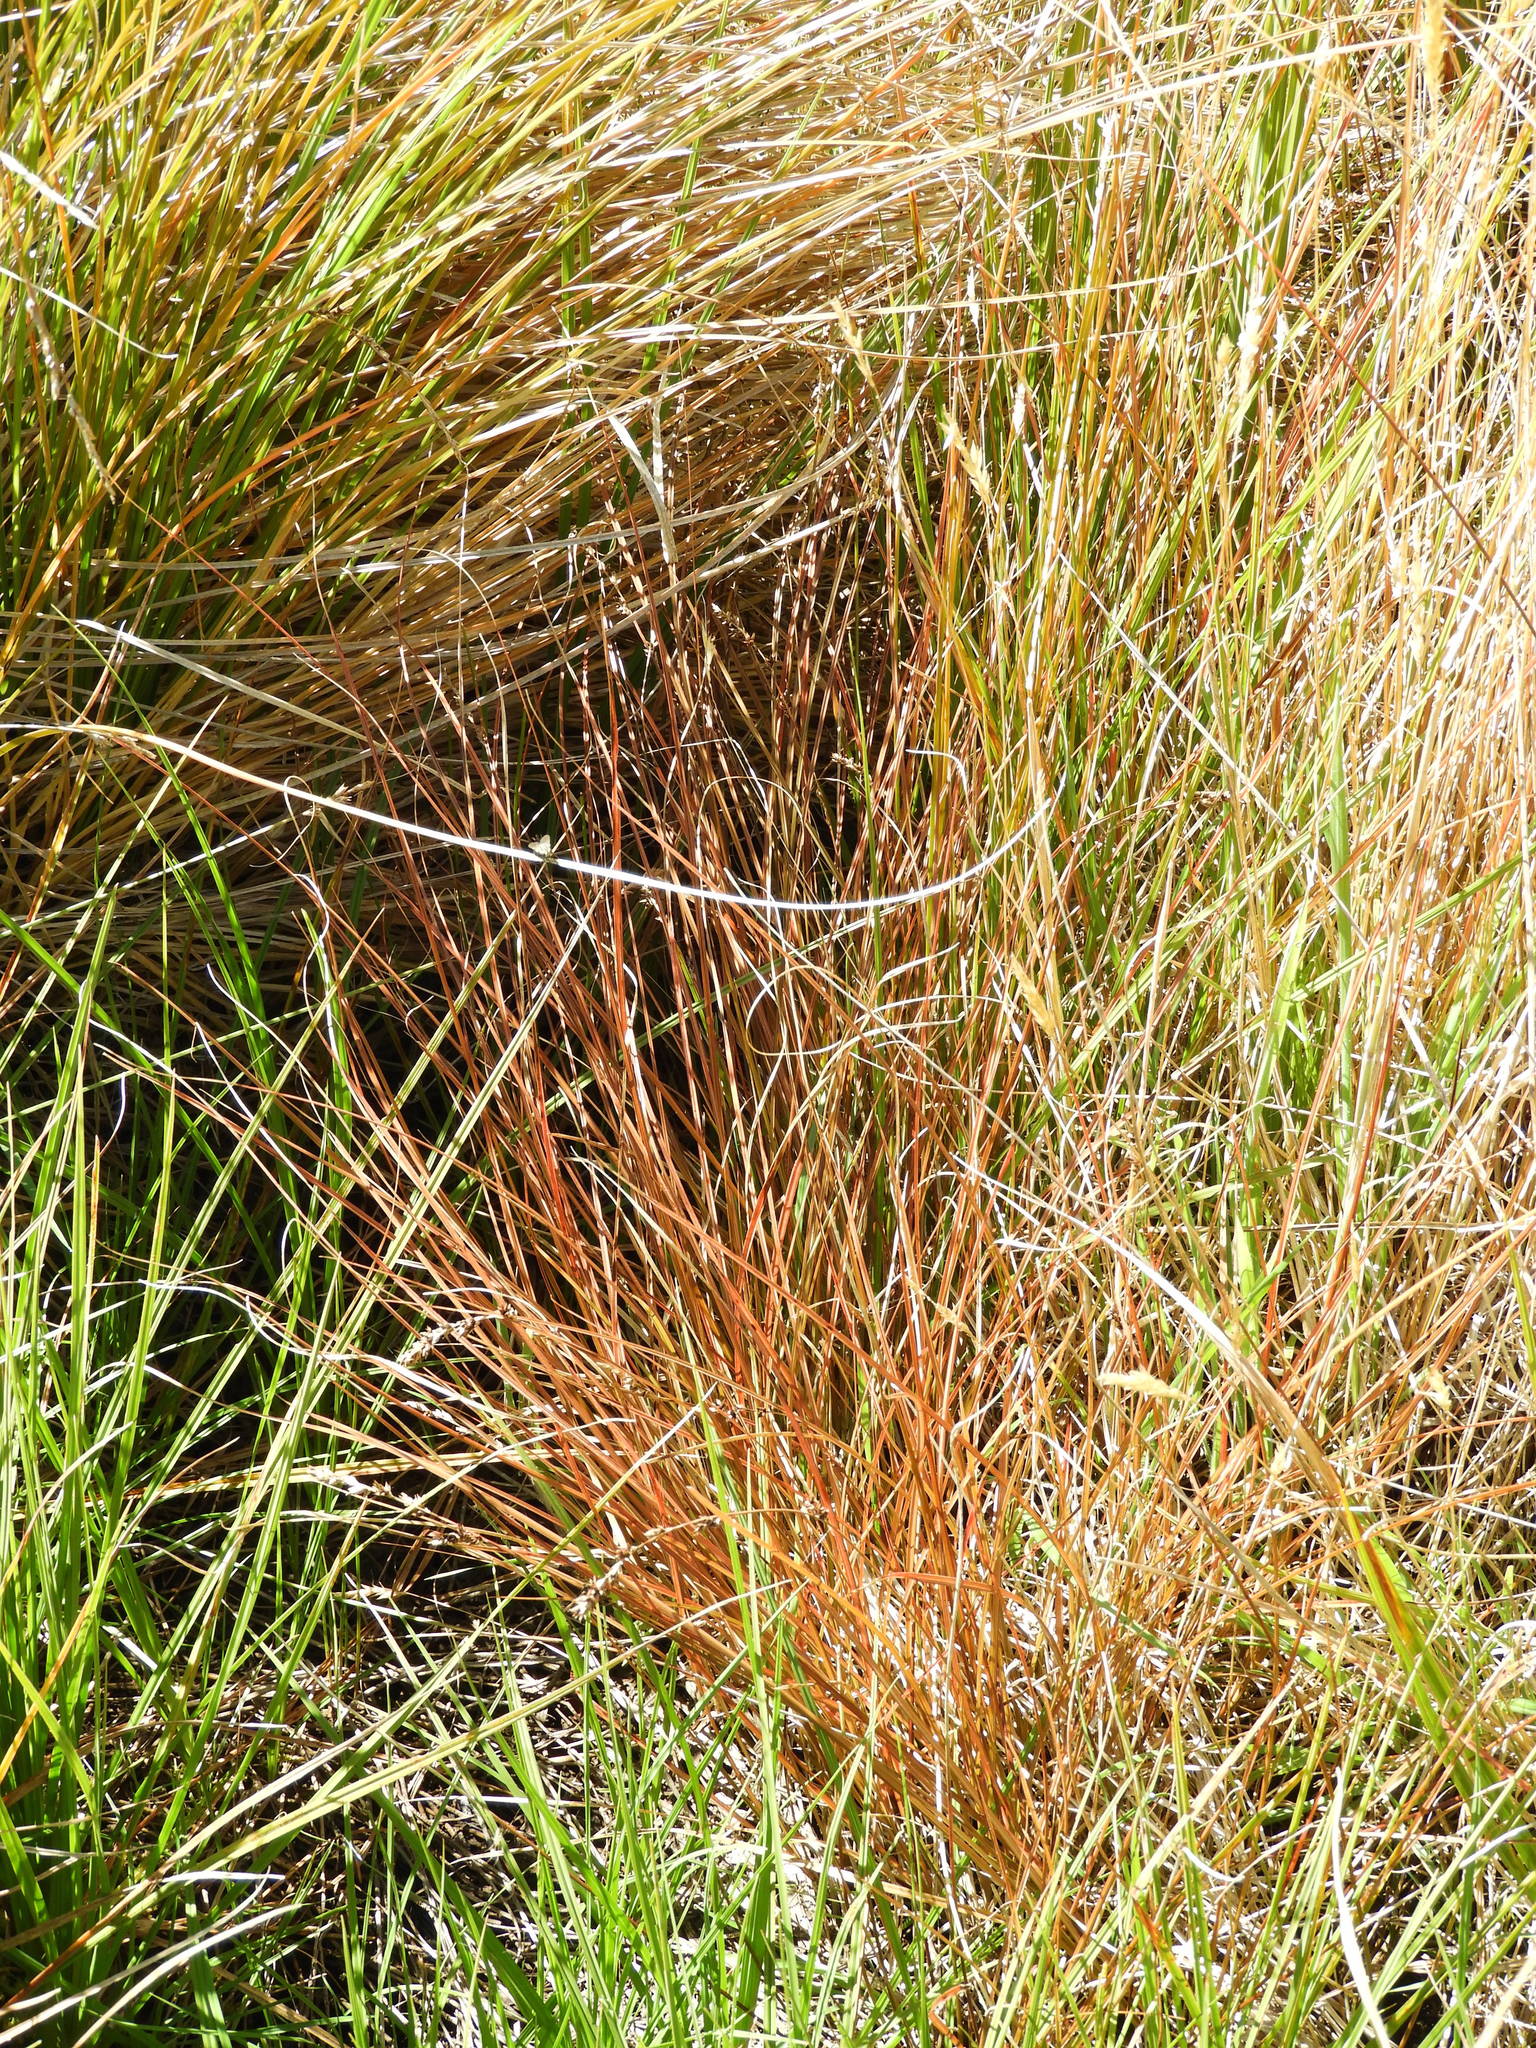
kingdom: Plantae
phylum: Tracheophyta
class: Liliopsida
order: Poales
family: Cyperaceae
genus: Carex
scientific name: Carex tenuiculmis
